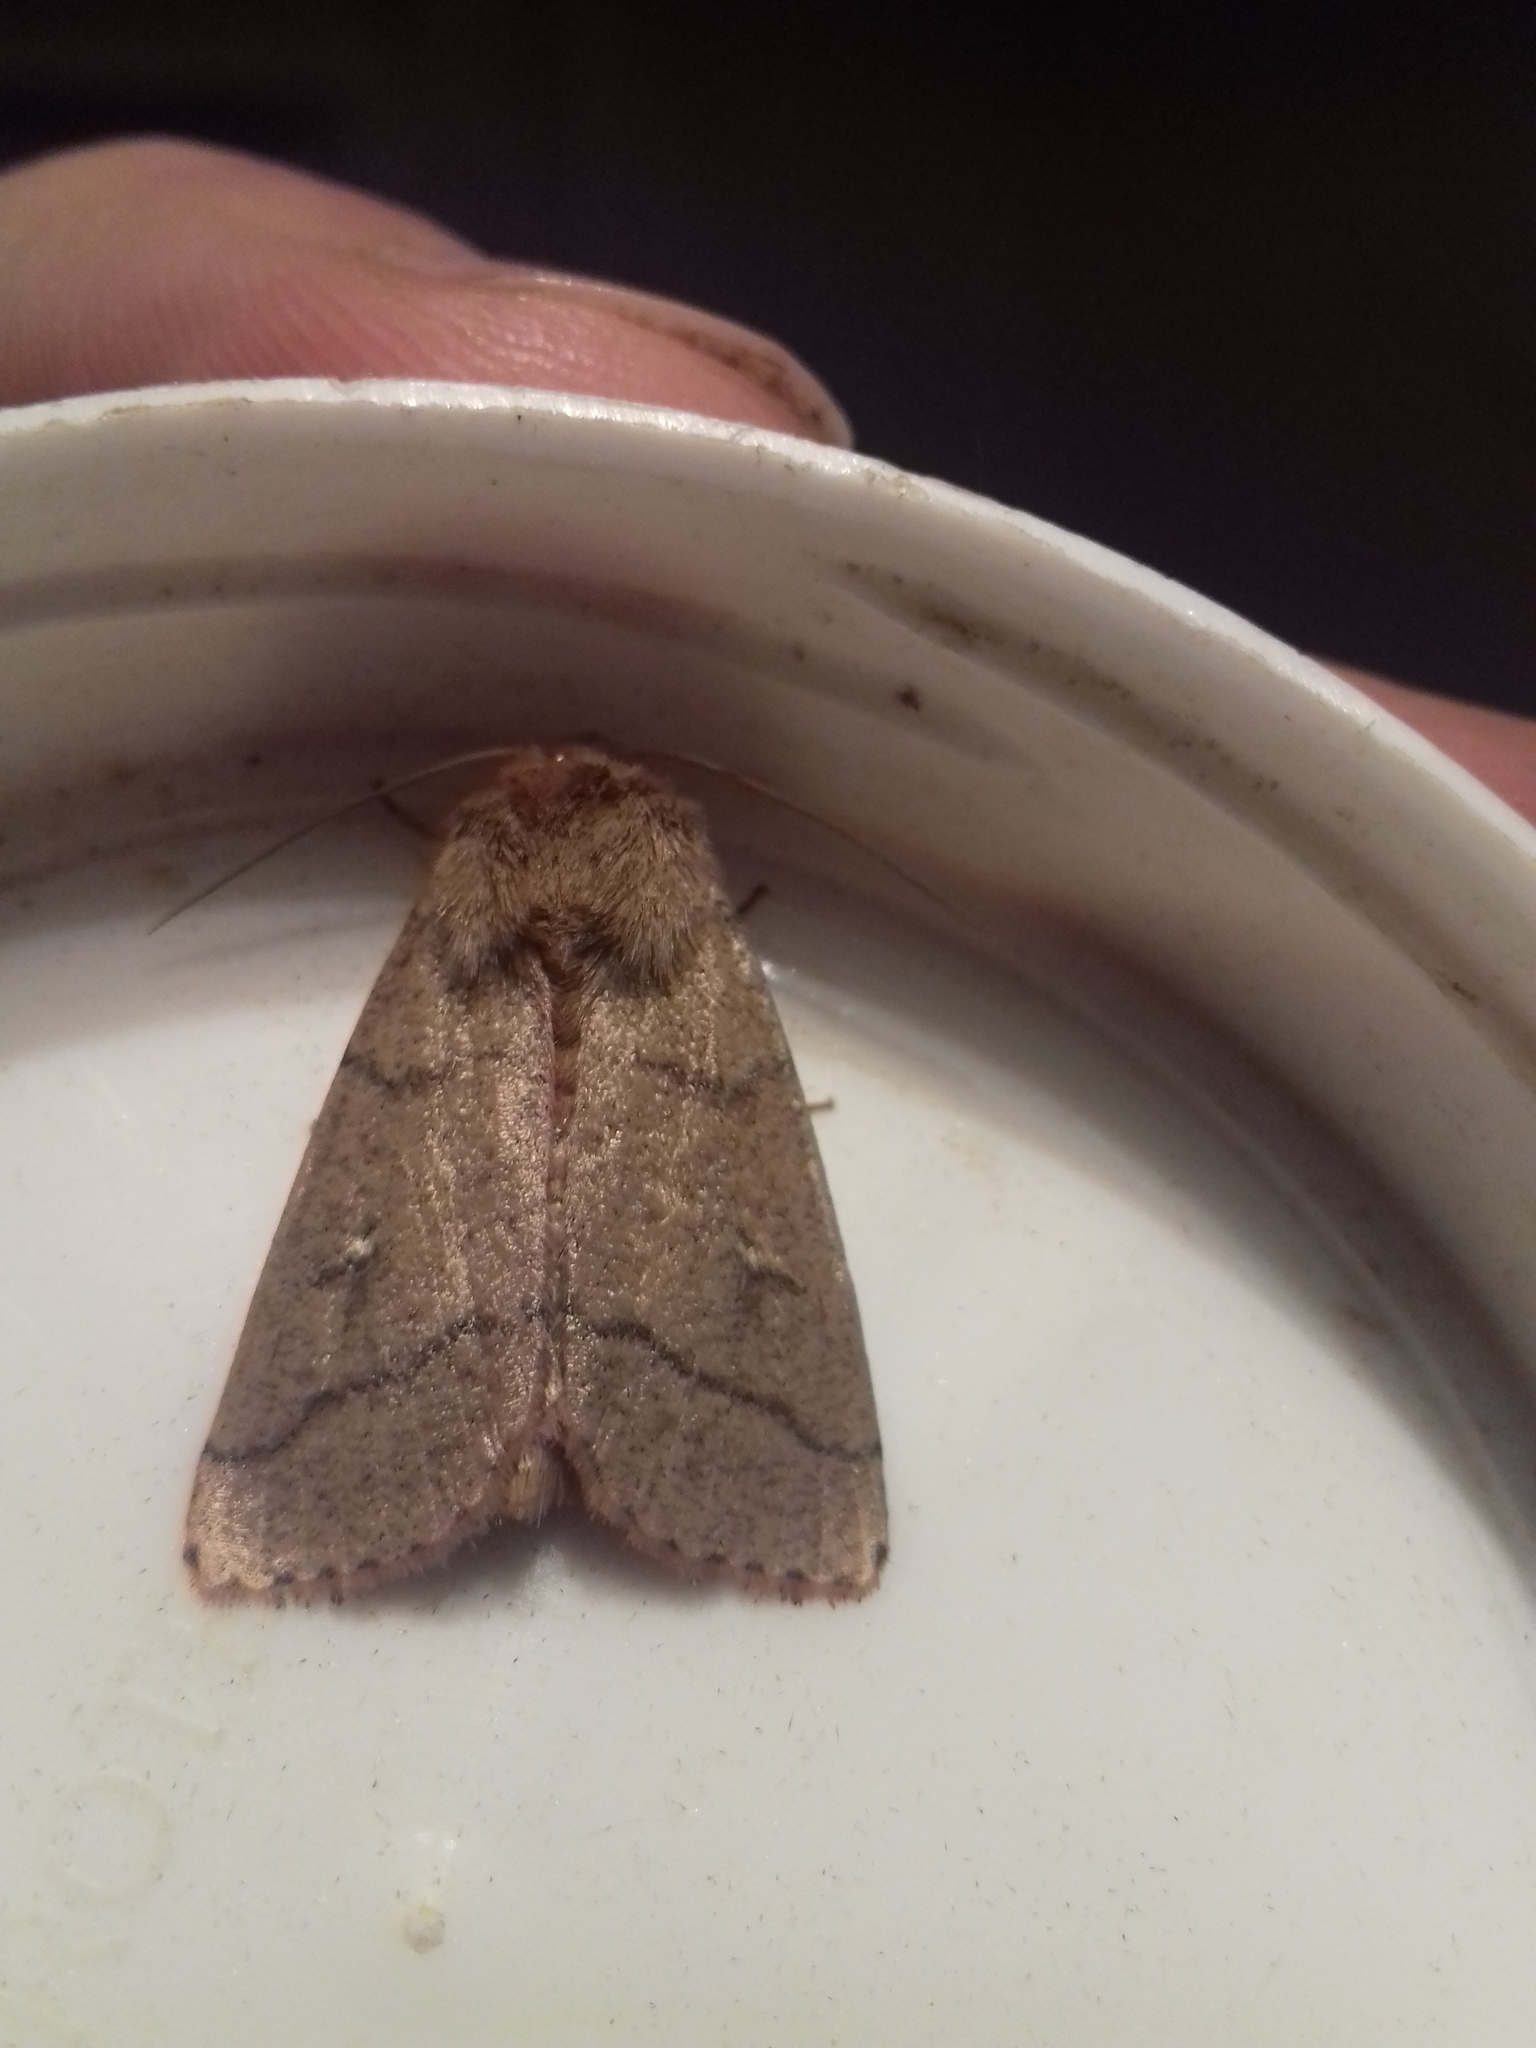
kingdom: Animalia
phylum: Arthropoda
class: Insecta
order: Lepidoptera
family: Noctuidae
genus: Mythimna
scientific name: Mythimna turca
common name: Double line
